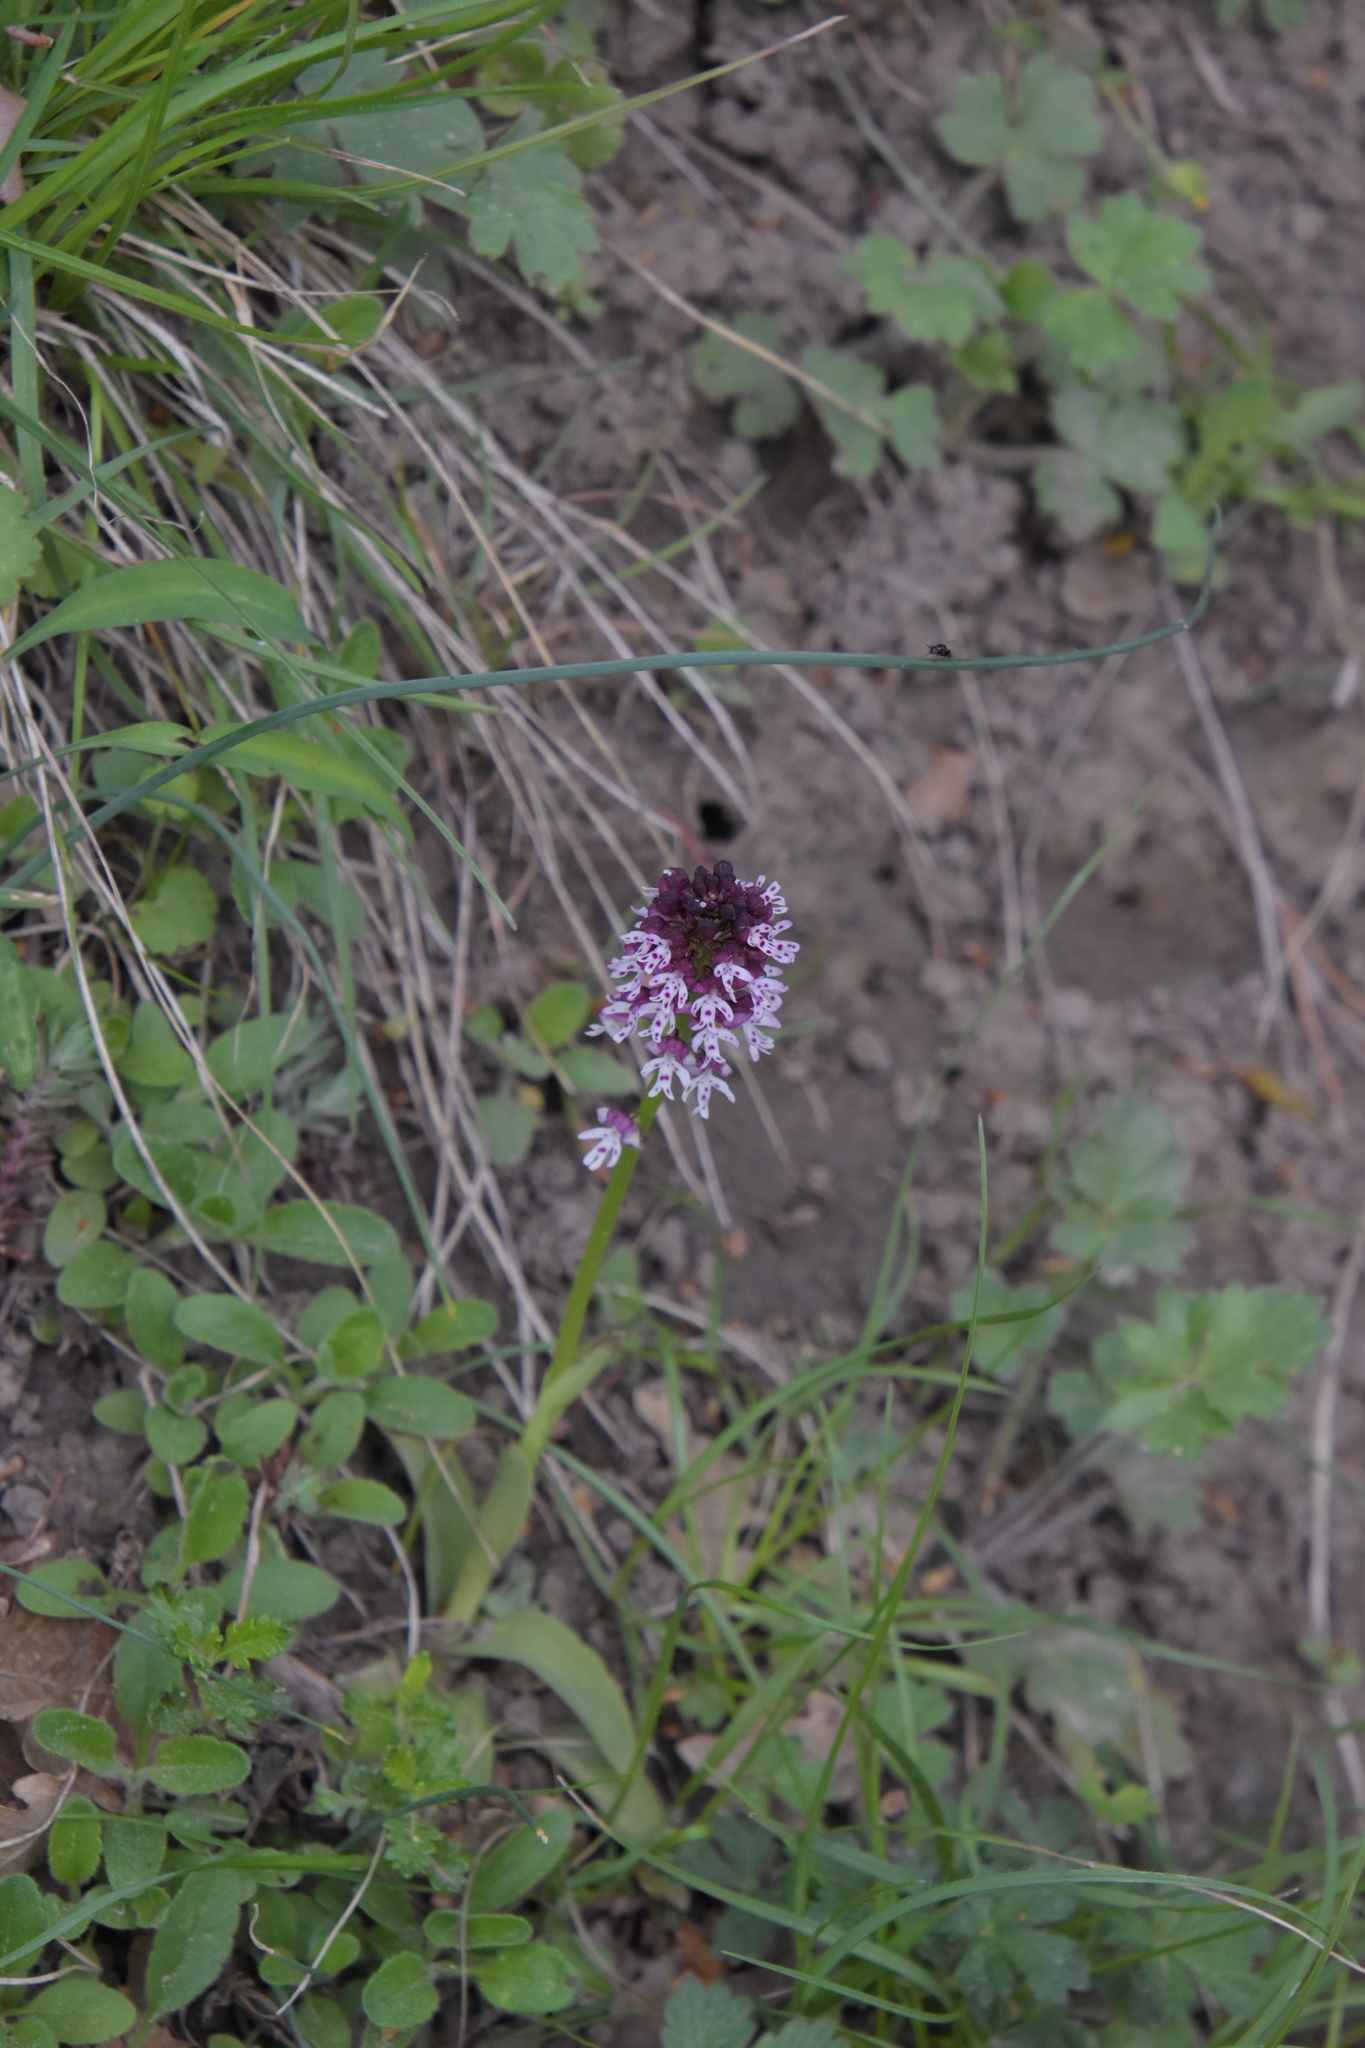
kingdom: Plantae
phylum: Tracheophyta
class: Liliopsida
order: Asparagales
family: Orchidaceae
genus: Neotinea
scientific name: Neotinea ustulata
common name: Burnt orchid
